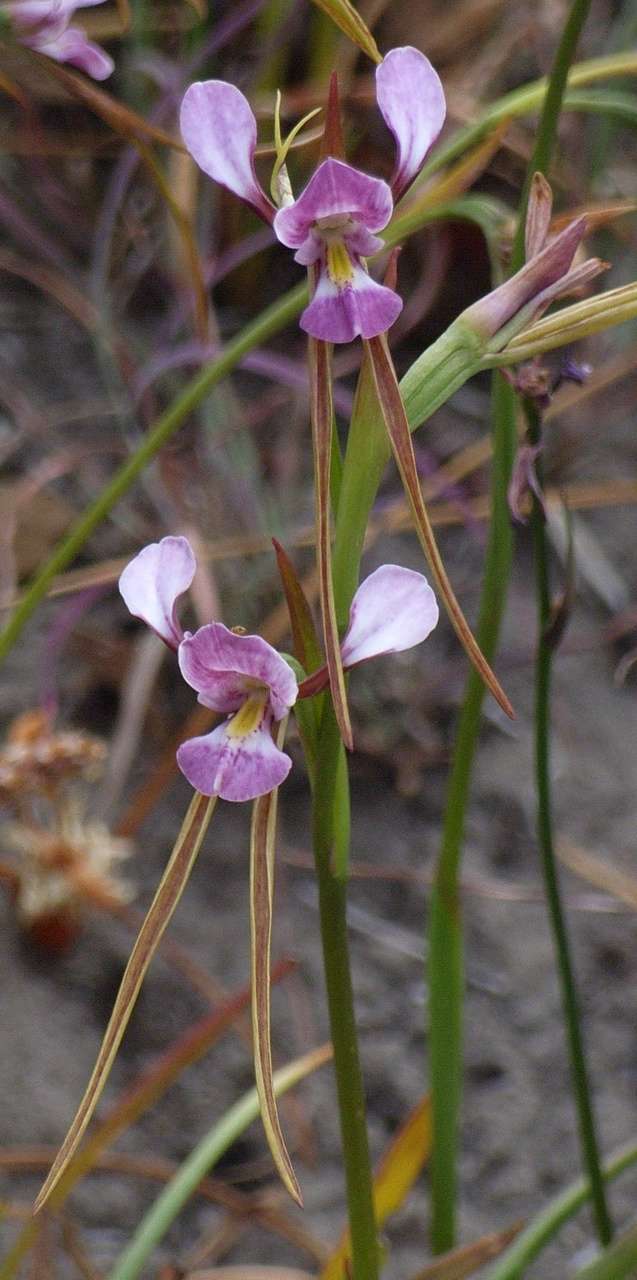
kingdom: Plantae
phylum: Tracheophyta
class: Liliopsida
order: Asparagales
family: Orchidaceae
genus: Diuris
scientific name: Diuris punctata
